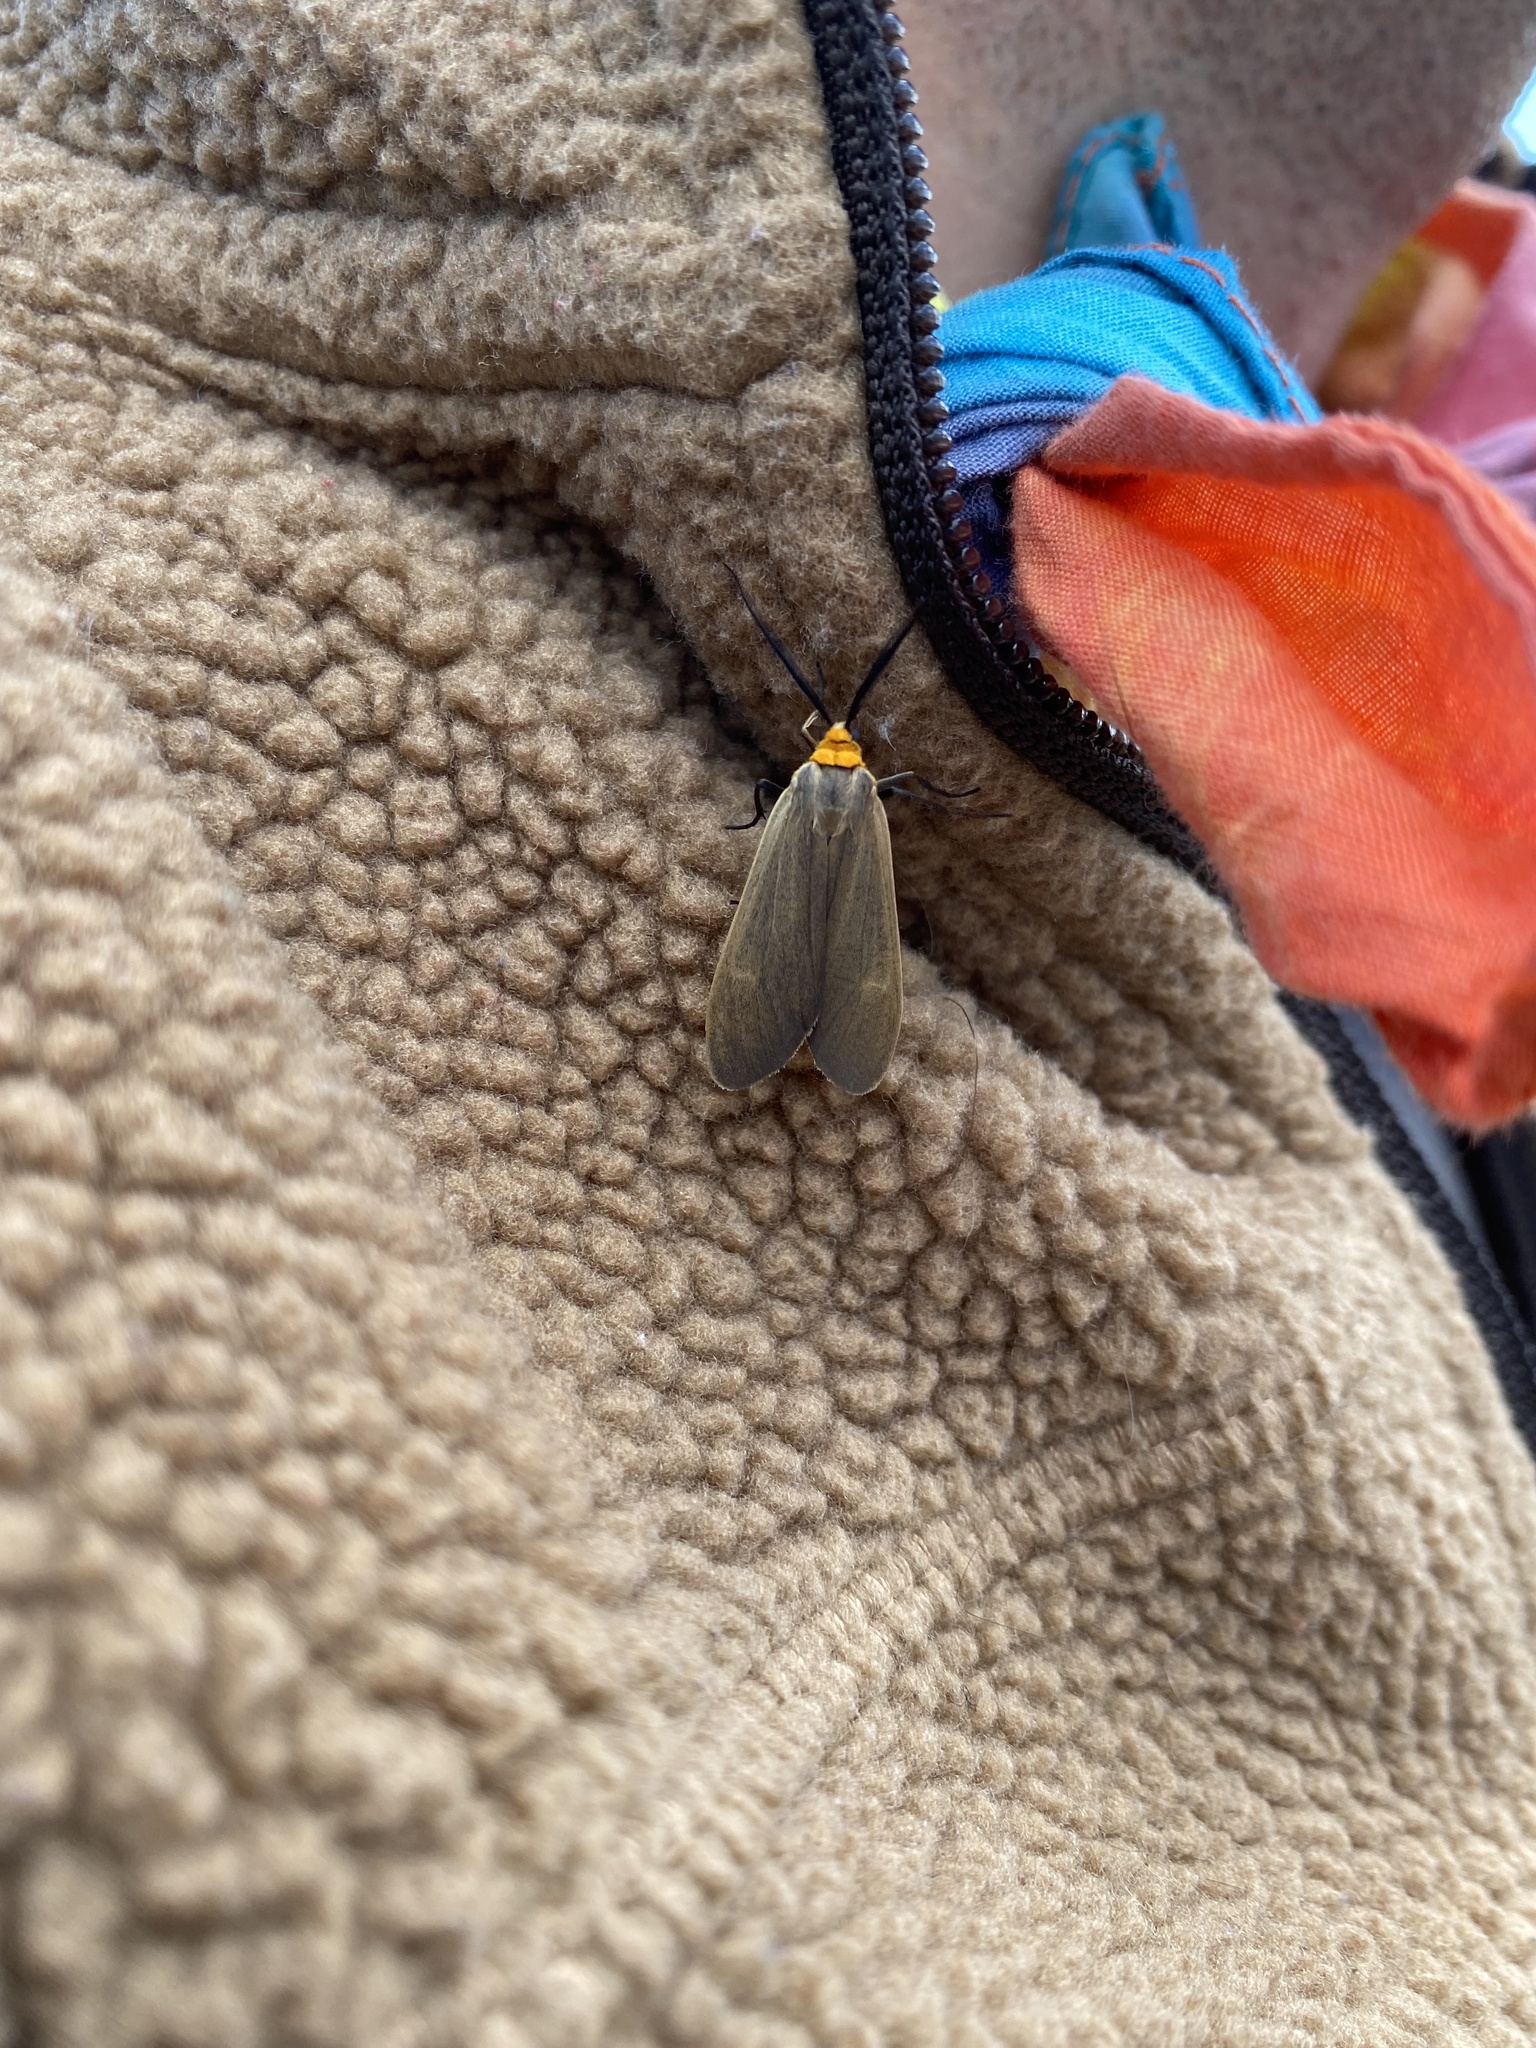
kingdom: Animalia
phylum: Arthropoda
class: Insecta
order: Lepidoptera
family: Erebidae
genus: Cisseps
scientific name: Cisseps fulvicollis
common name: Yellow-collared scape moth
